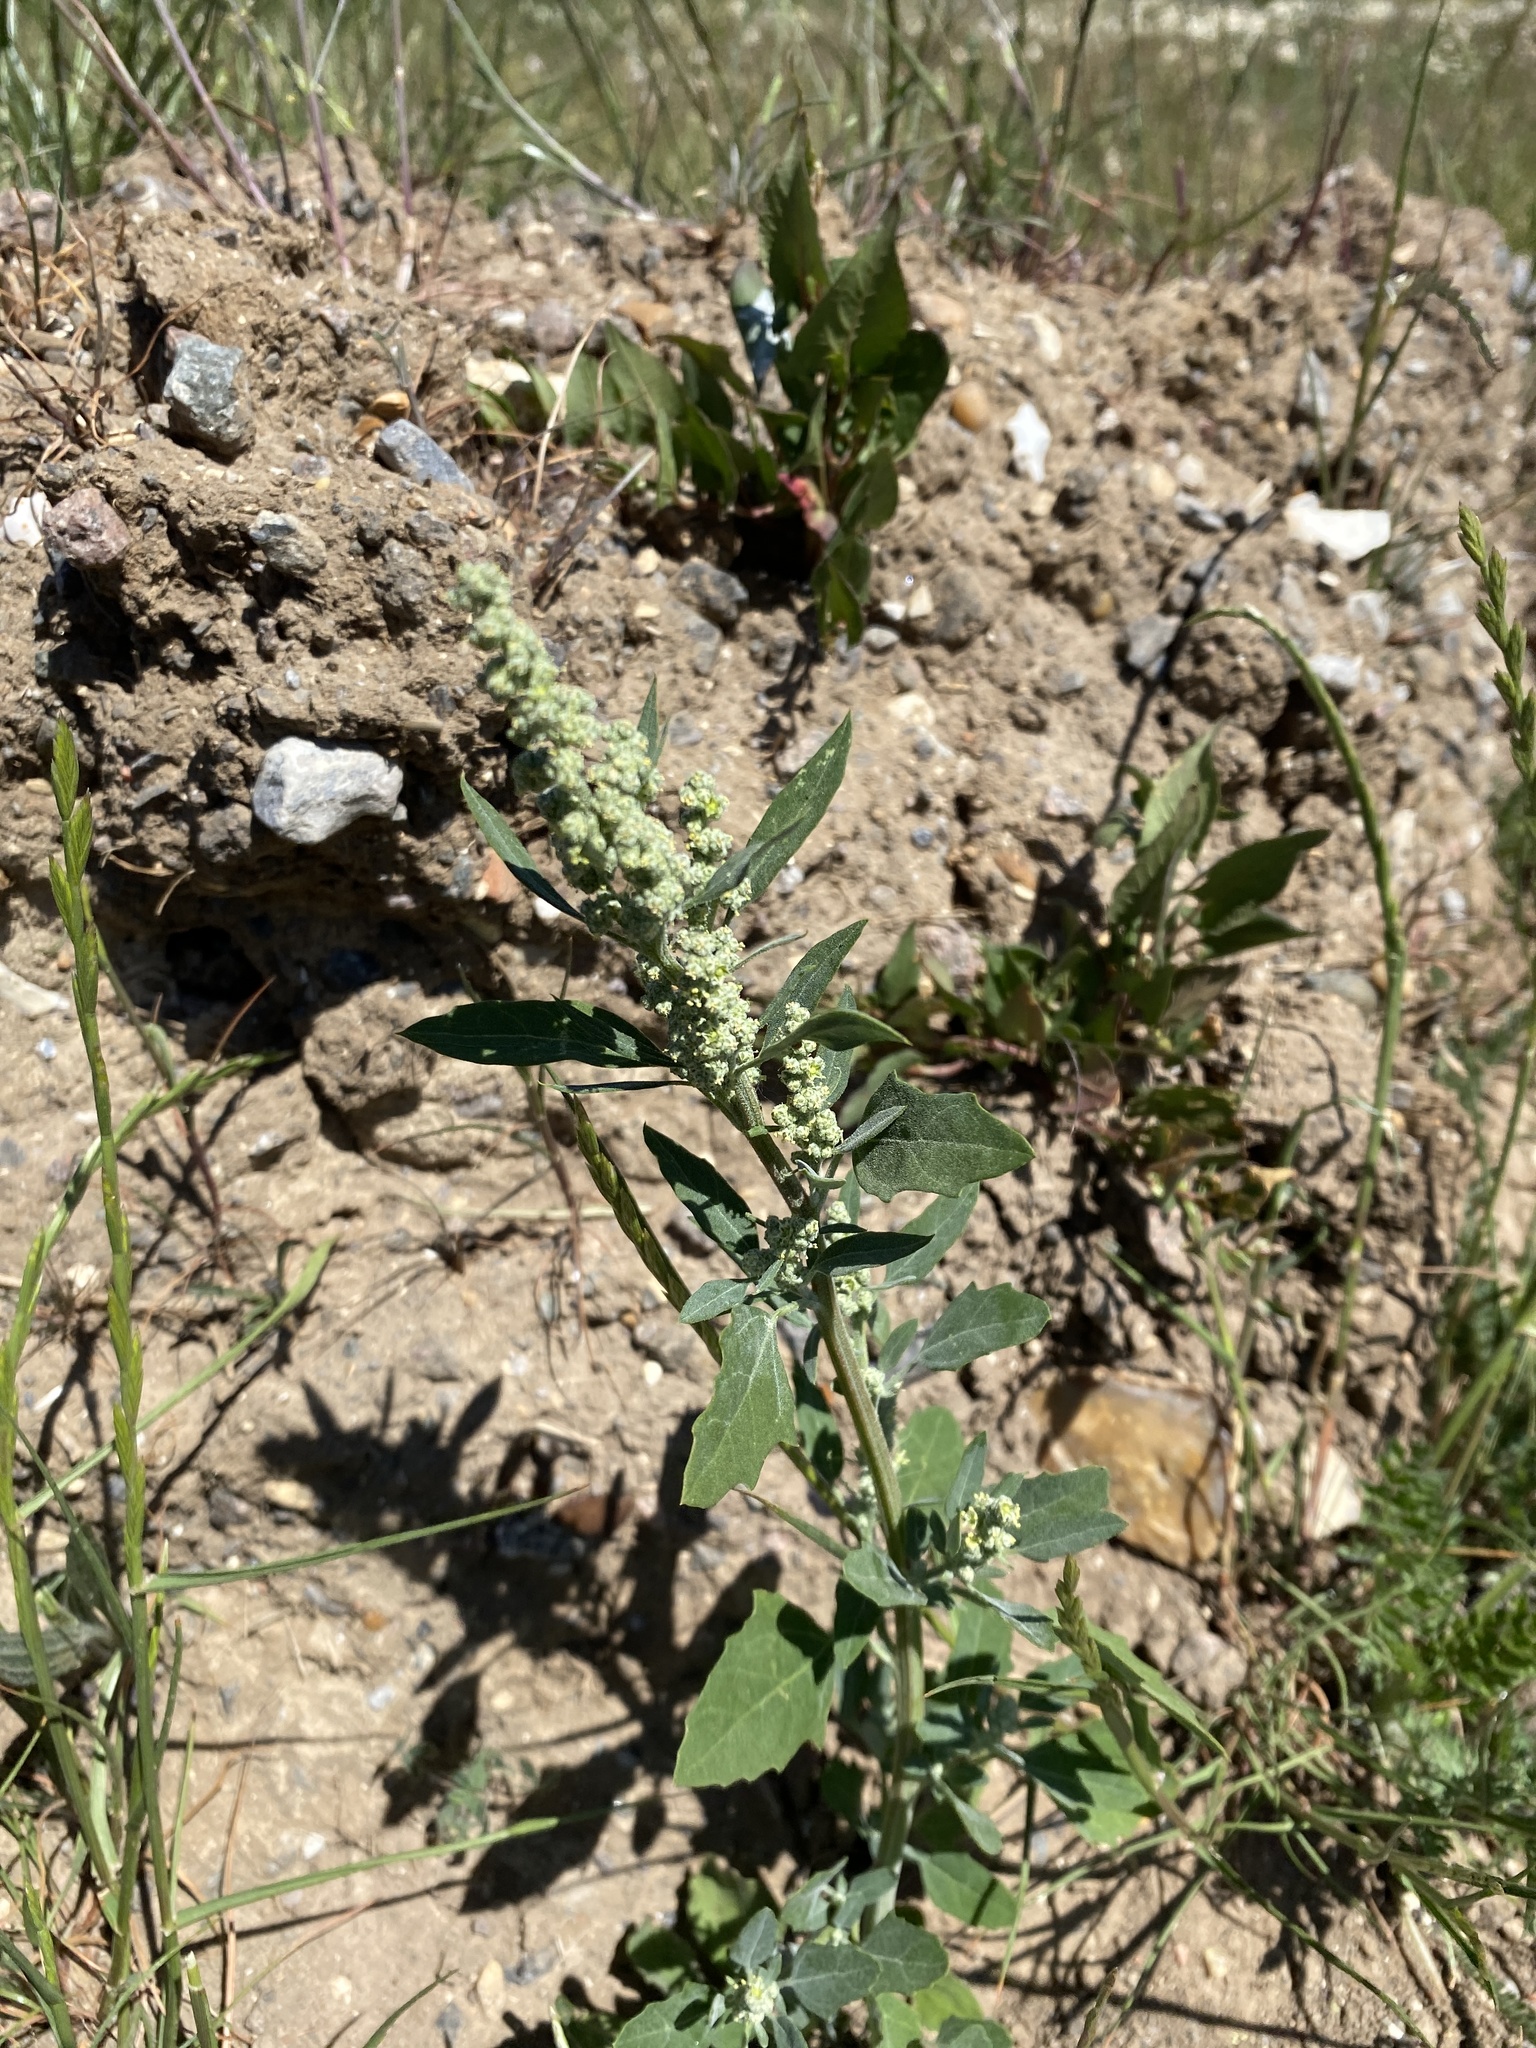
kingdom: Plantae
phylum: Tracheophyta
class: Magnoliopsida
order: Caryophyllales
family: Amaranthaceae
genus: Chenopodium
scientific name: Chenopodium album
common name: Fat-hen
